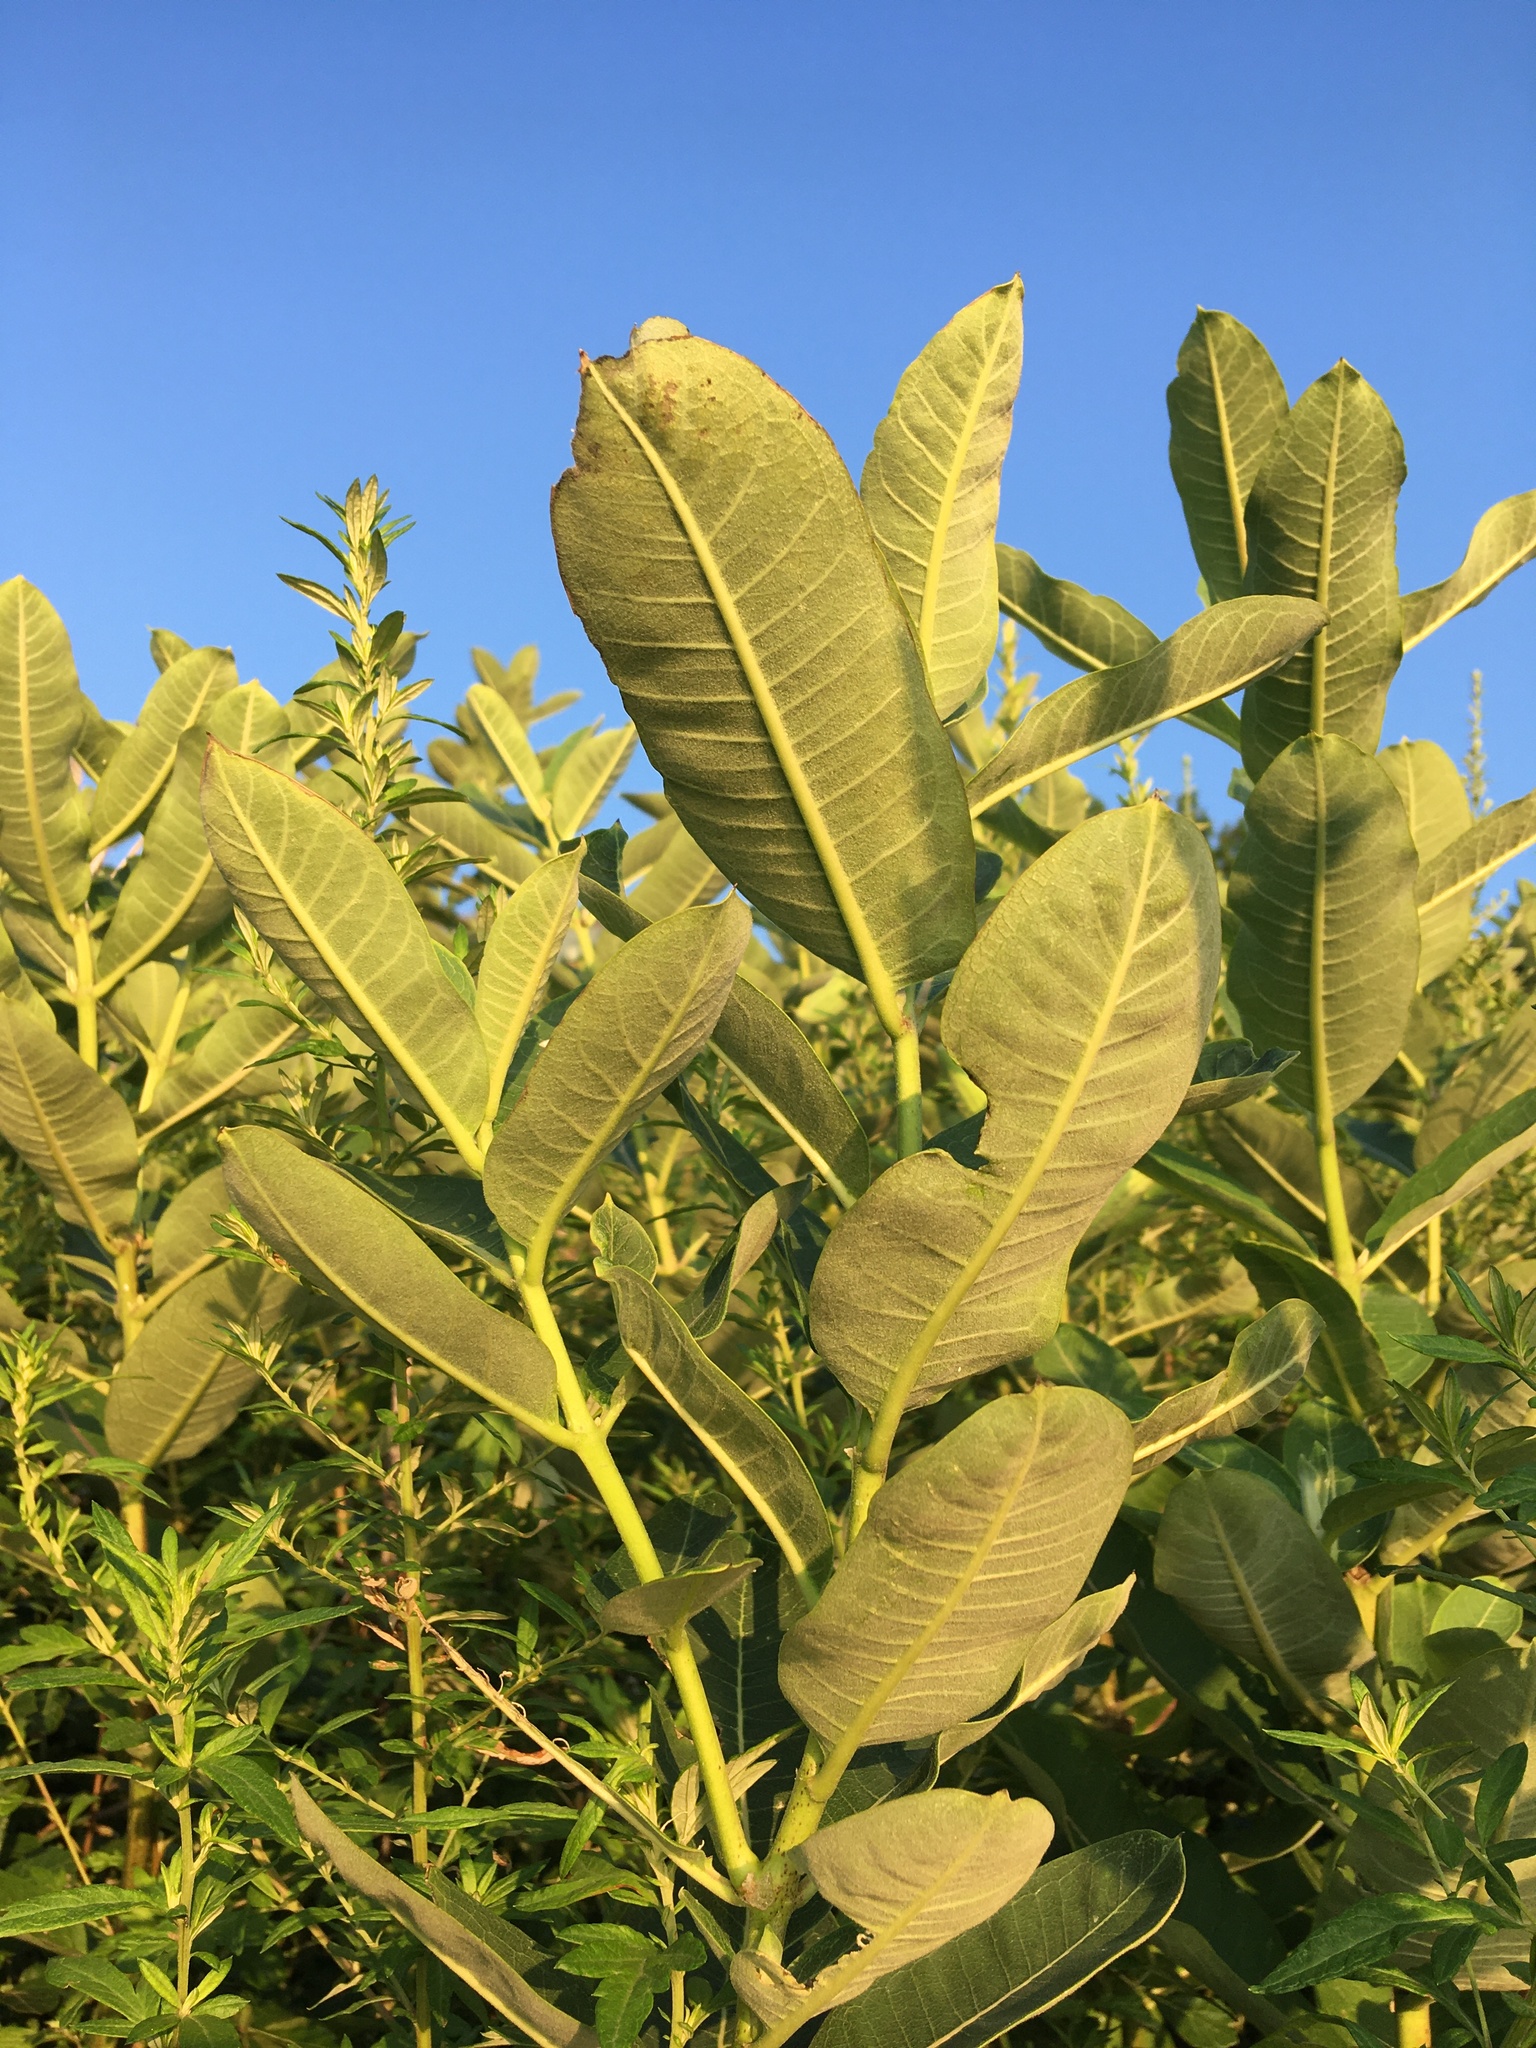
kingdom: Plantae
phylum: Tracheophyta
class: Magnoliopsida
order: Gentianales
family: Apocynaceae
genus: Asclepias
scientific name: Asclepias syriaca
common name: Common milkweed
